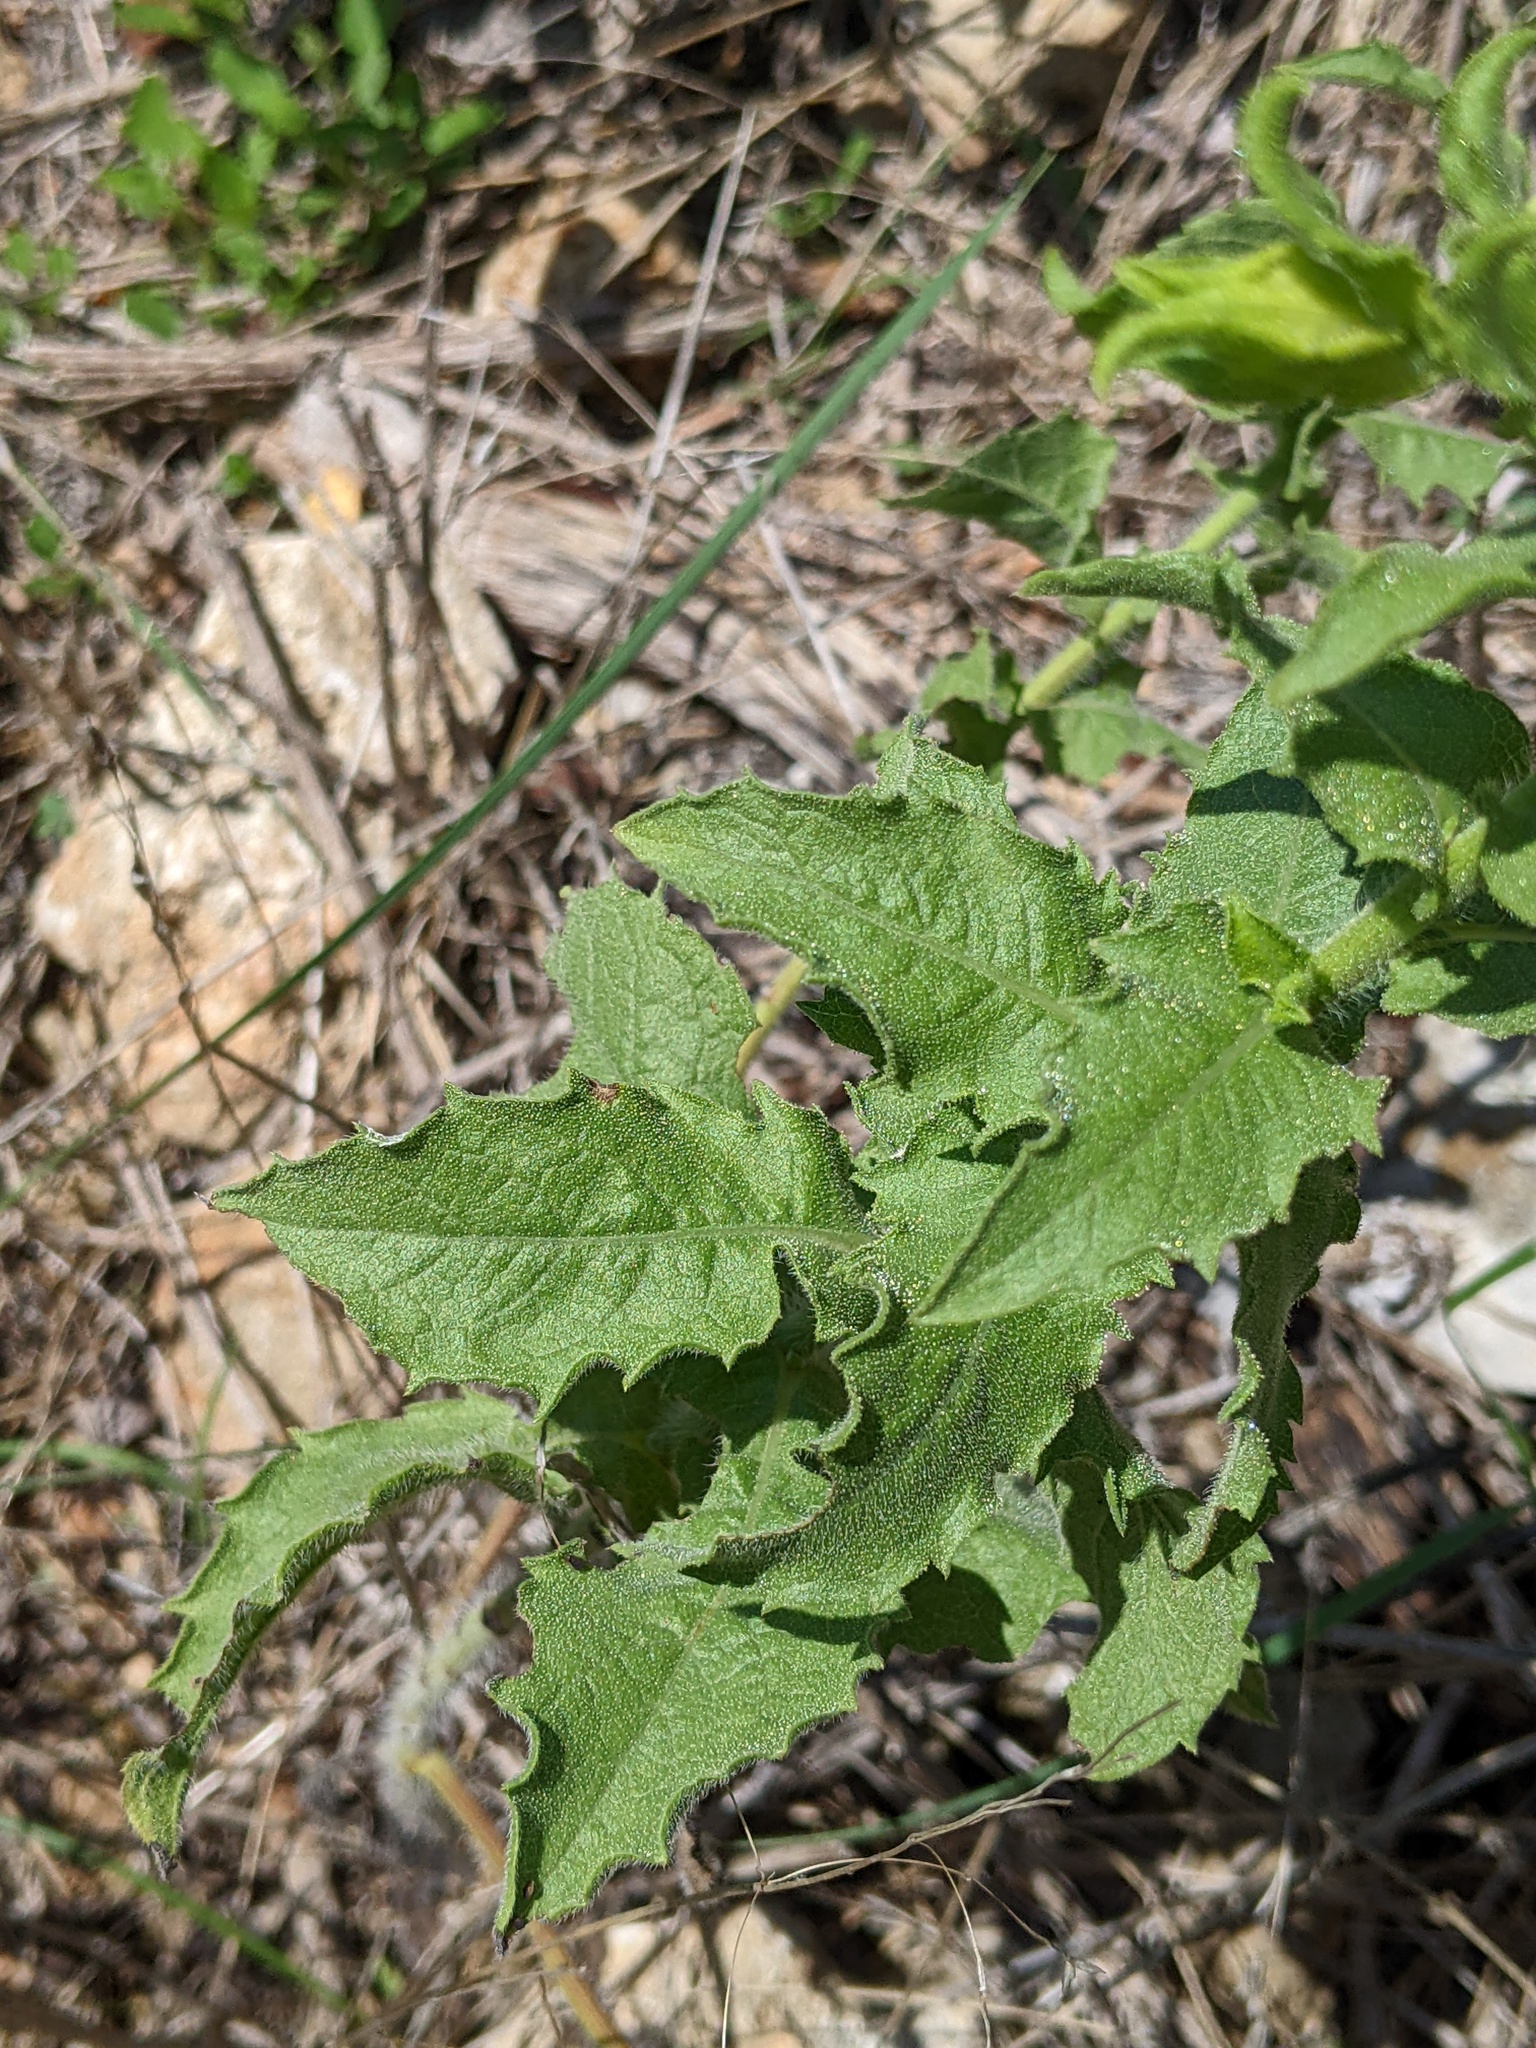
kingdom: Plantae
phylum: Tracheophyta
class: Magnoliopsida
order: Asterales
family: Asteraceae
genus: Heterotheca
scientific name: Heterotheca subaxillaris
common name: Camphorweed
